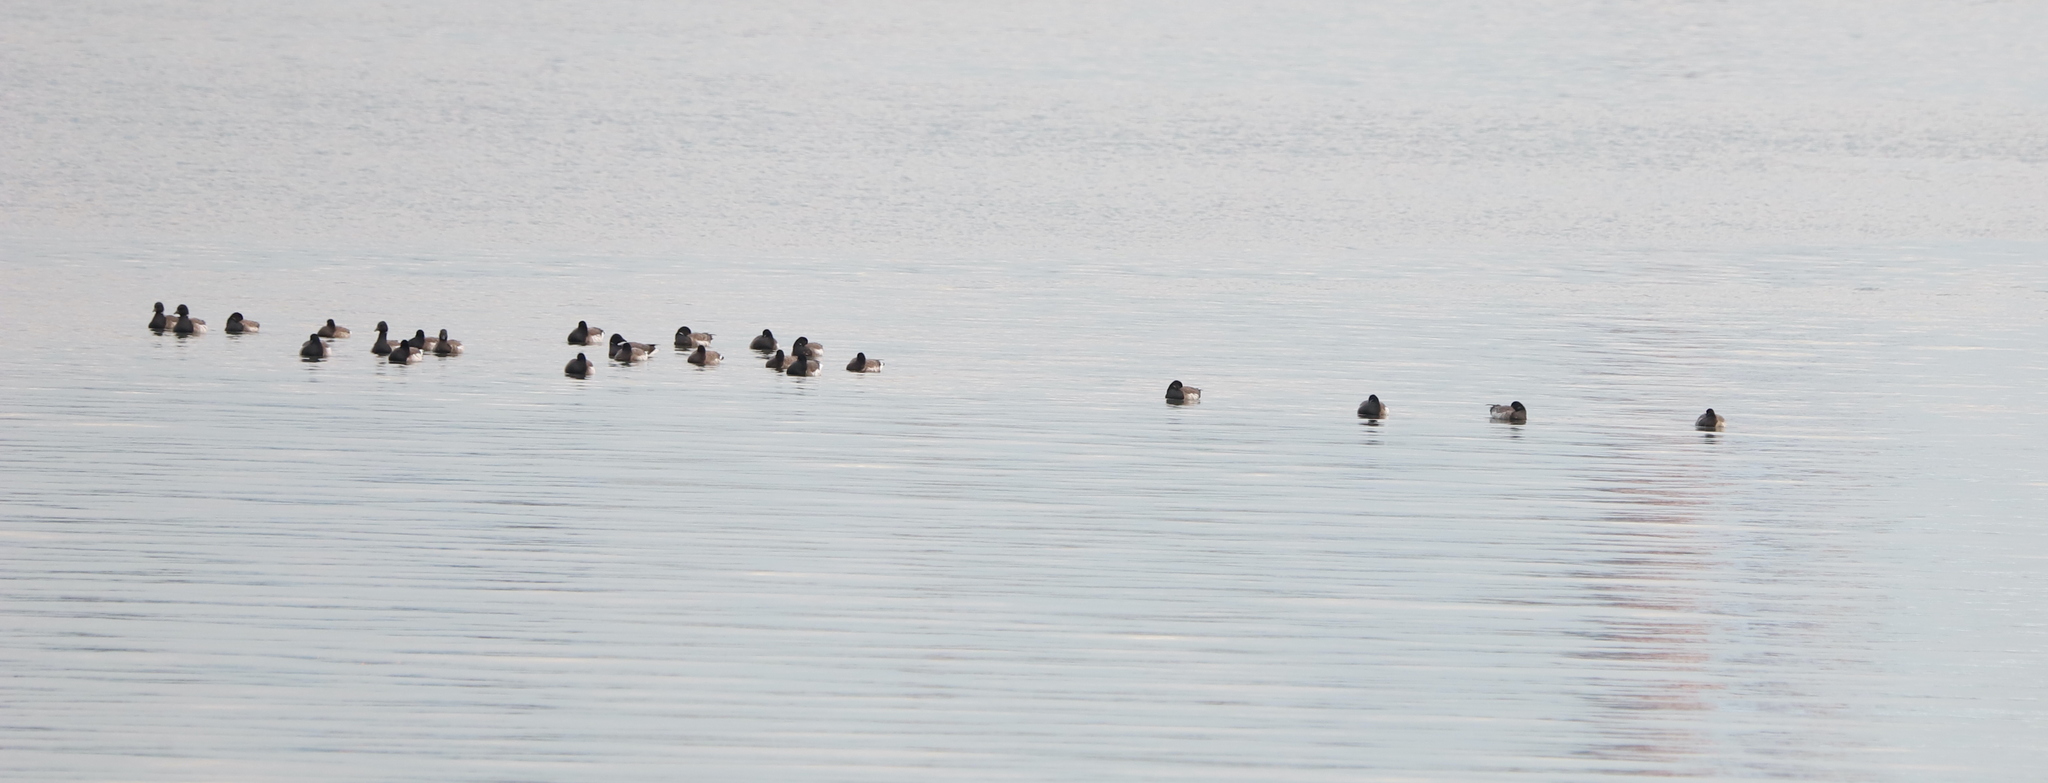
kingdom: Animalia
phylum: Chordata
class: Aves
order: Anseriformes
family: Anatidae
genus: Branta
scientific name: Branta bernicla
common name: Brant goose
